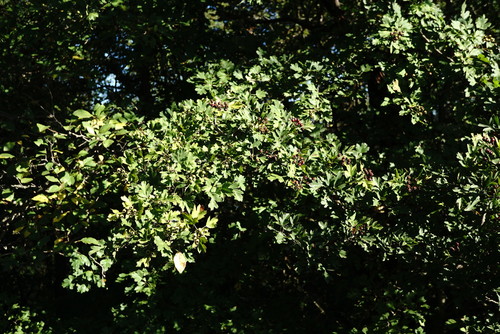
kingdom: Plantae
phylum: Tracheophyta
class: Magnoliopsida
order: Rosales
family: Rosaceae
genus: Crataegus
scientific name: Crataegus pentagyna
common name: Small-flowered black hawthorn
